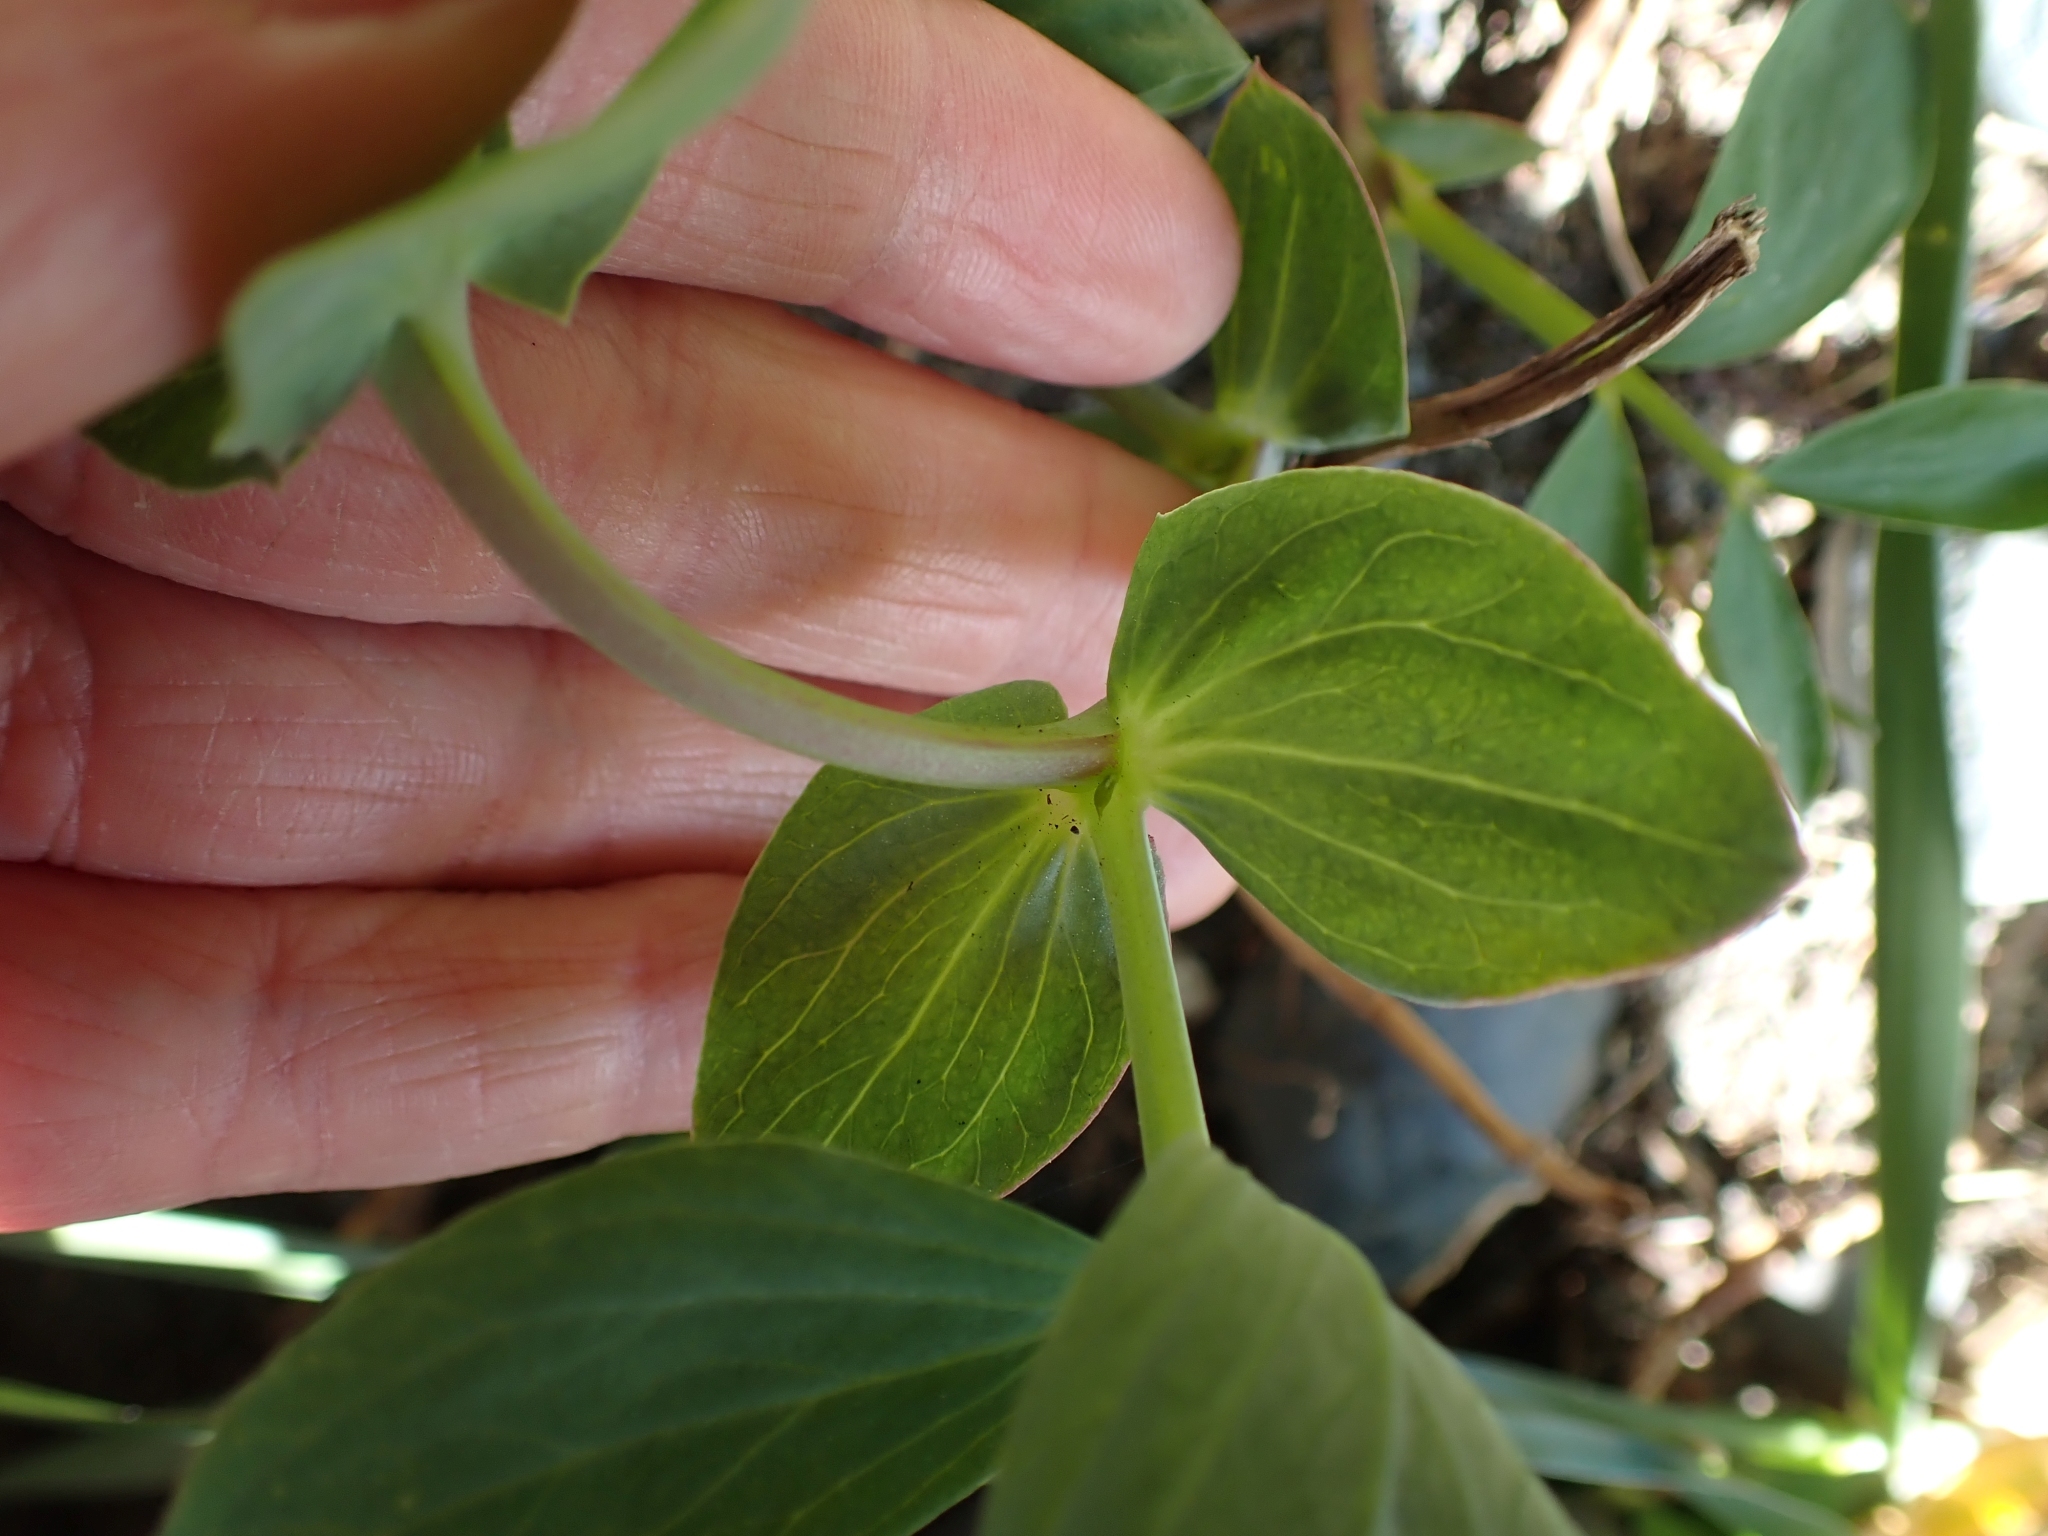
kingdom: Plantae
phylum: Tracheophyta
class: Magnoliopsida
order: Fabales
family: Fabaceae
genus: Lathyrus
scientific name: Lathyrus japonicus
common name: Sea pea
